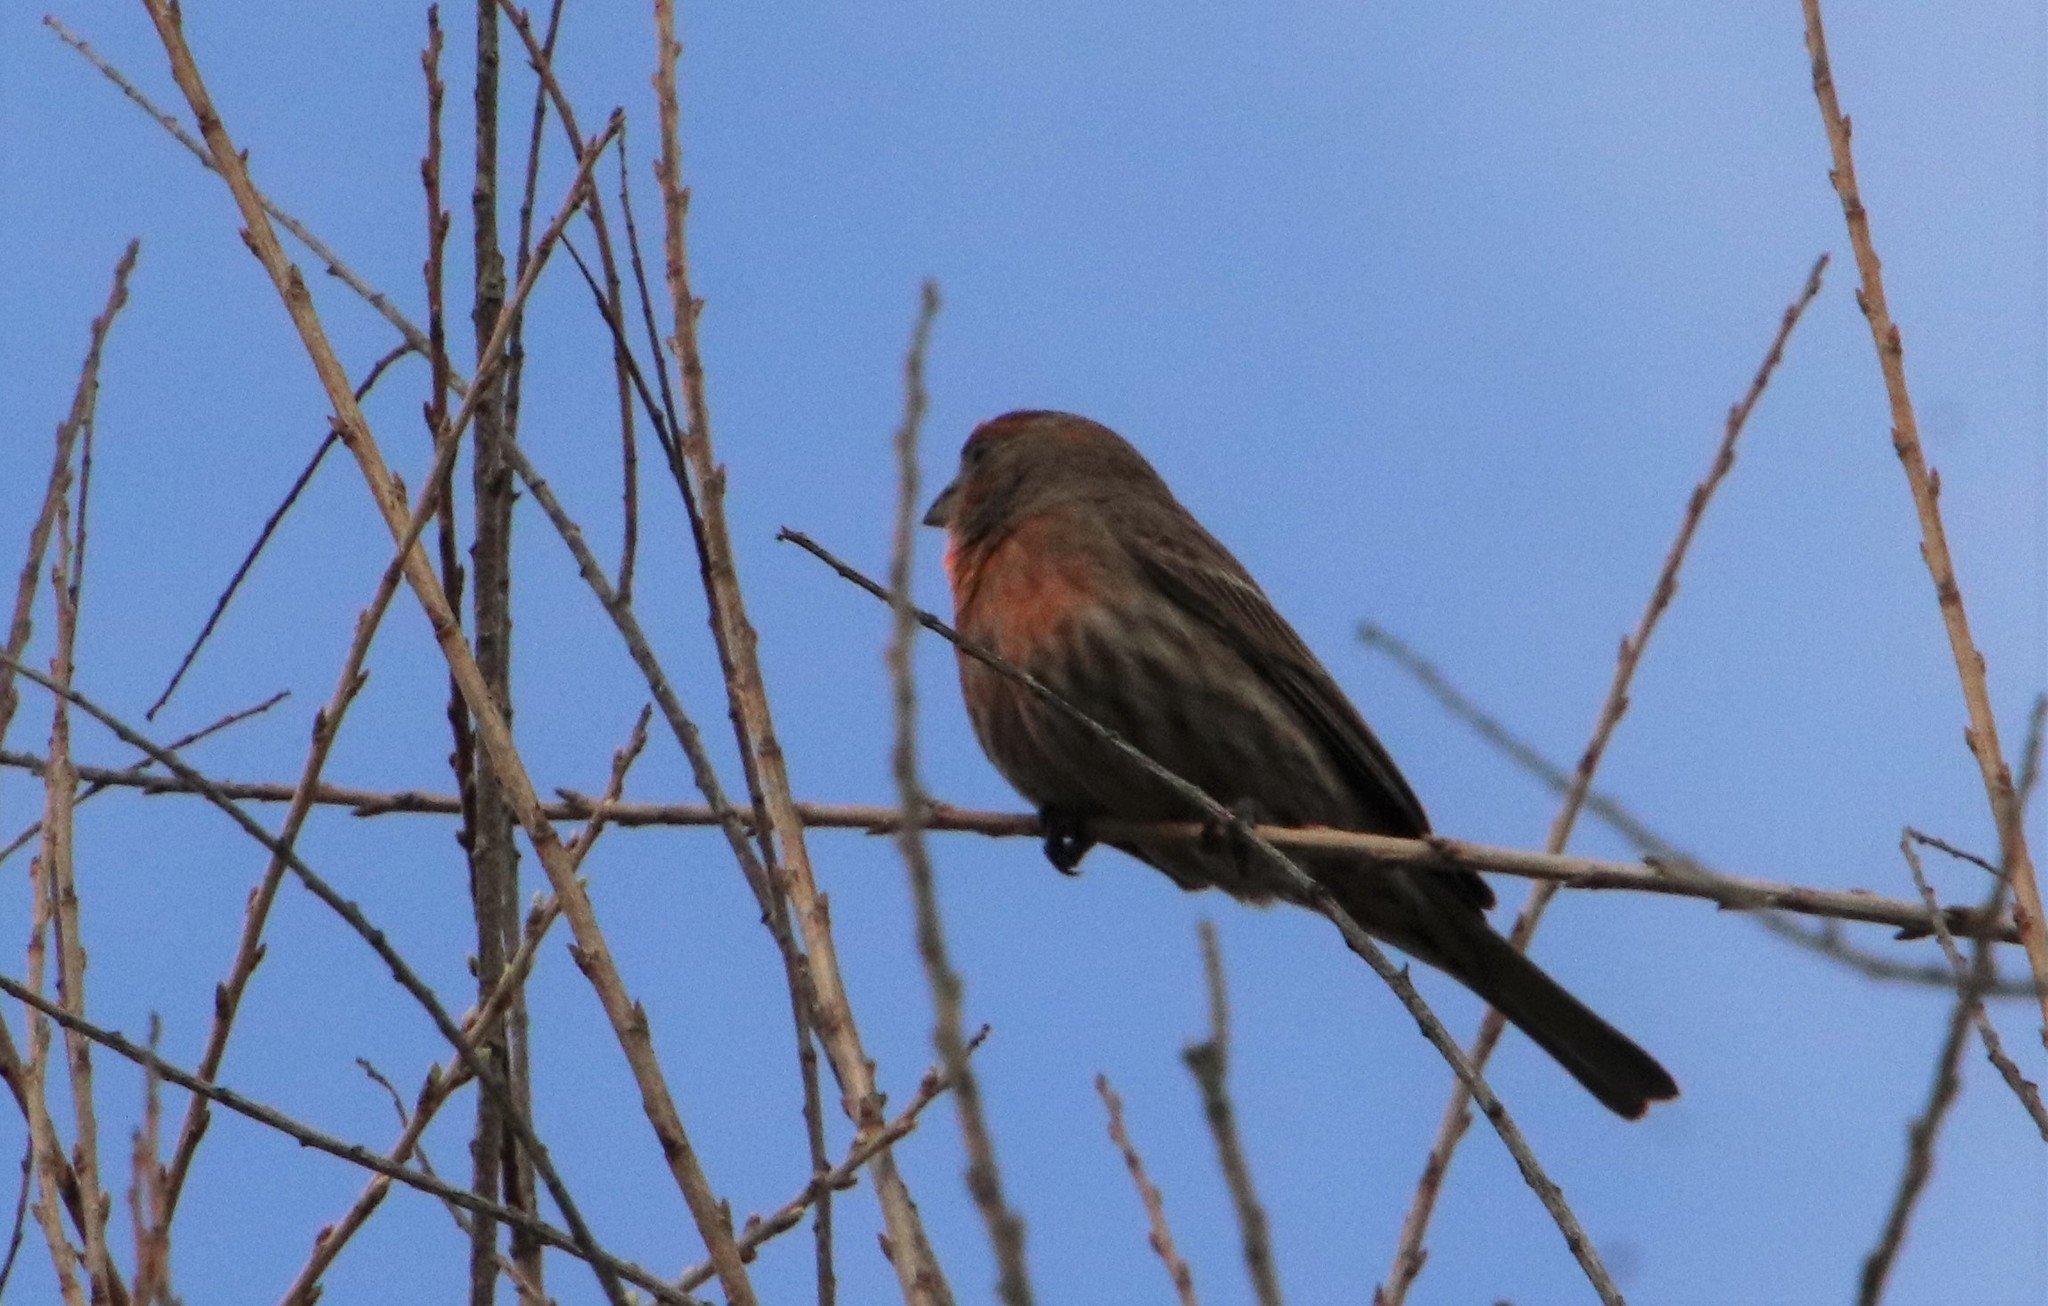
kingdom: Animalia
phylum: Chordata
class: Aves
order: Passeriformes
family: Fringillidae
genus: Haemorhous
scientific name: Haemorhous mexicanus
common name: House finch
